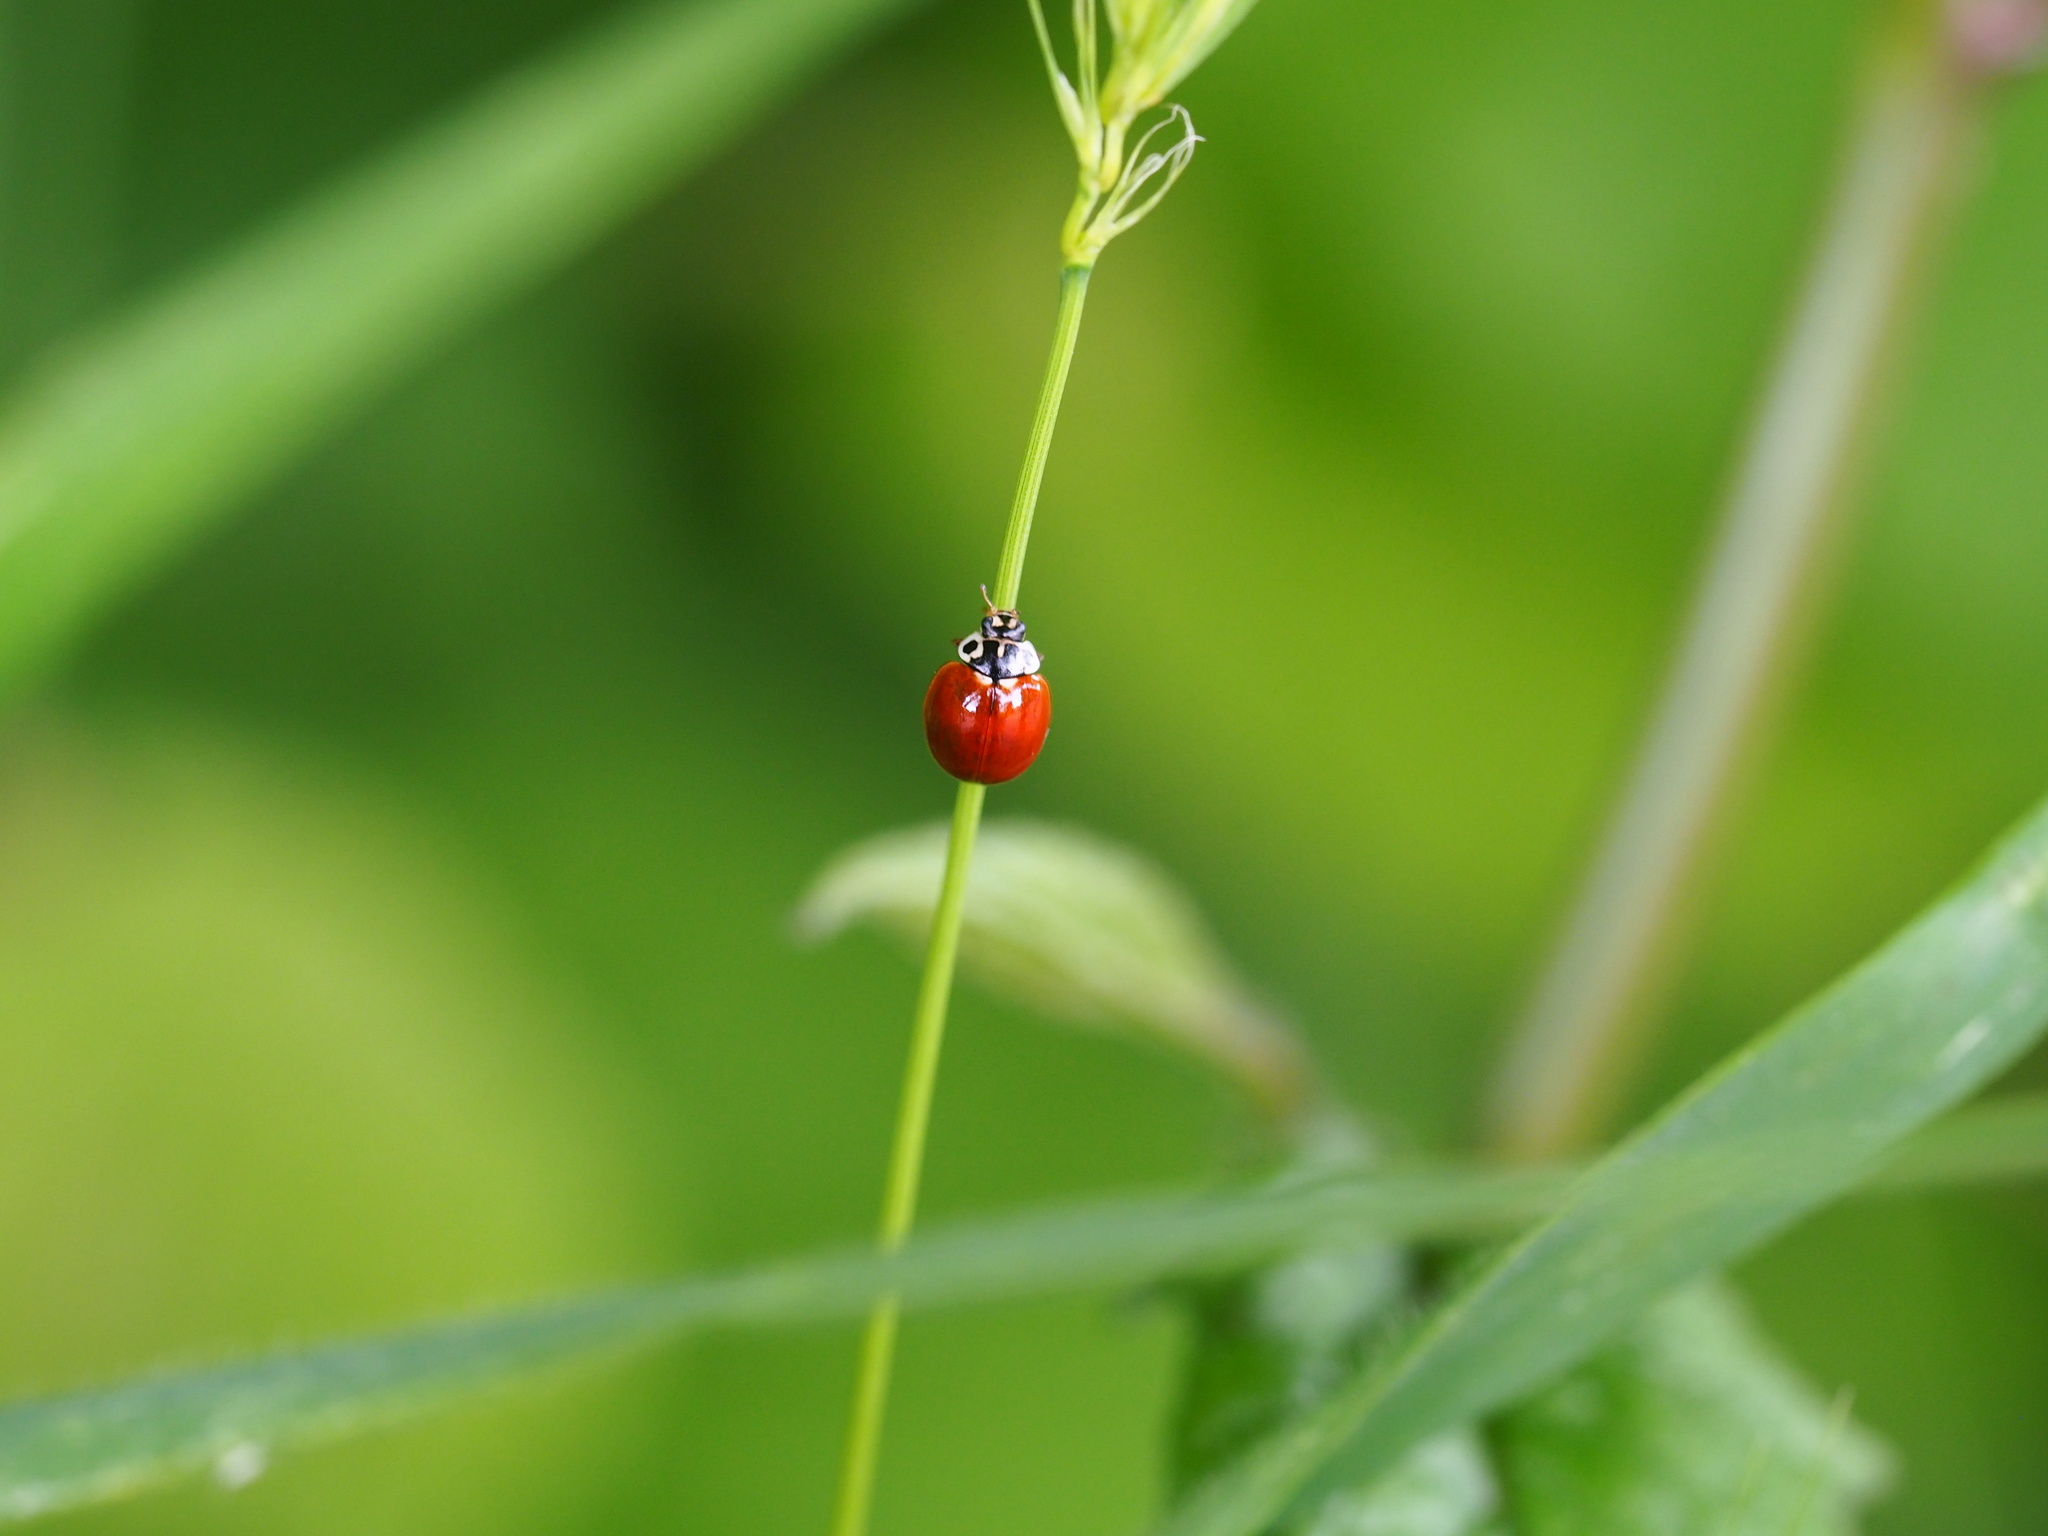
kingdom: Animalia
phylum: Arthropoda
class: Insecta
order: Coleoptera
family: Coccinellidae
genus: Cycloneda
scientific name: Cycloneda polita
